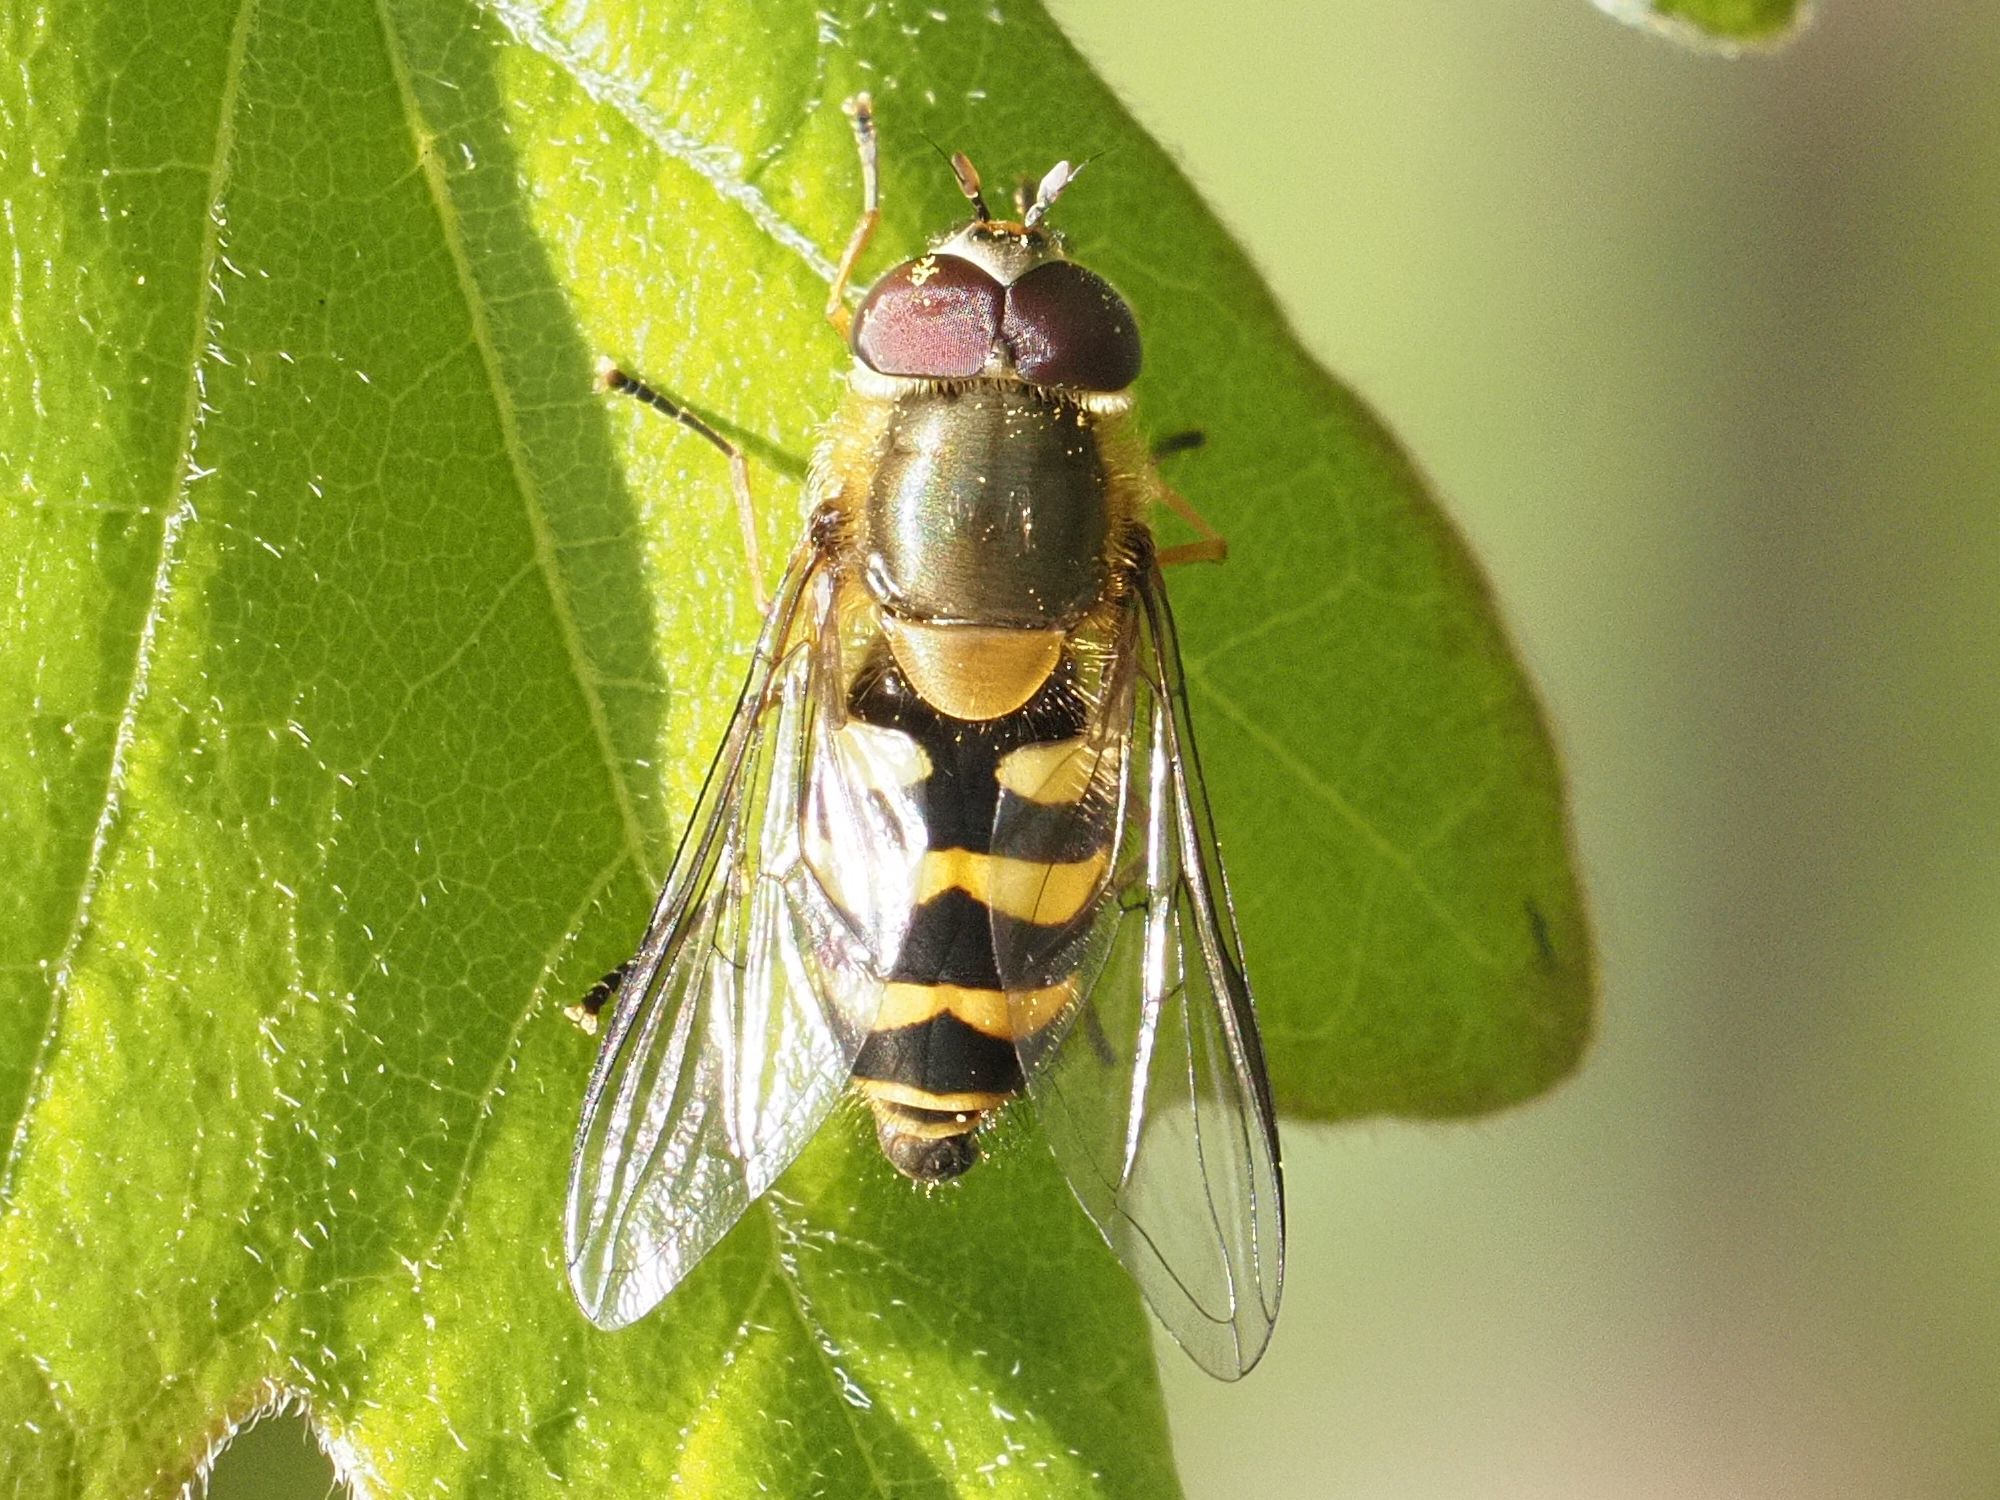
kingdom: Animalia
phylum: Arthropoda
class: Insecta
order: Diptera
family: Syrphidae
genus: Syrphus
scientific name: Syrphus torvus
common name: Hairy-eyed flower fly
